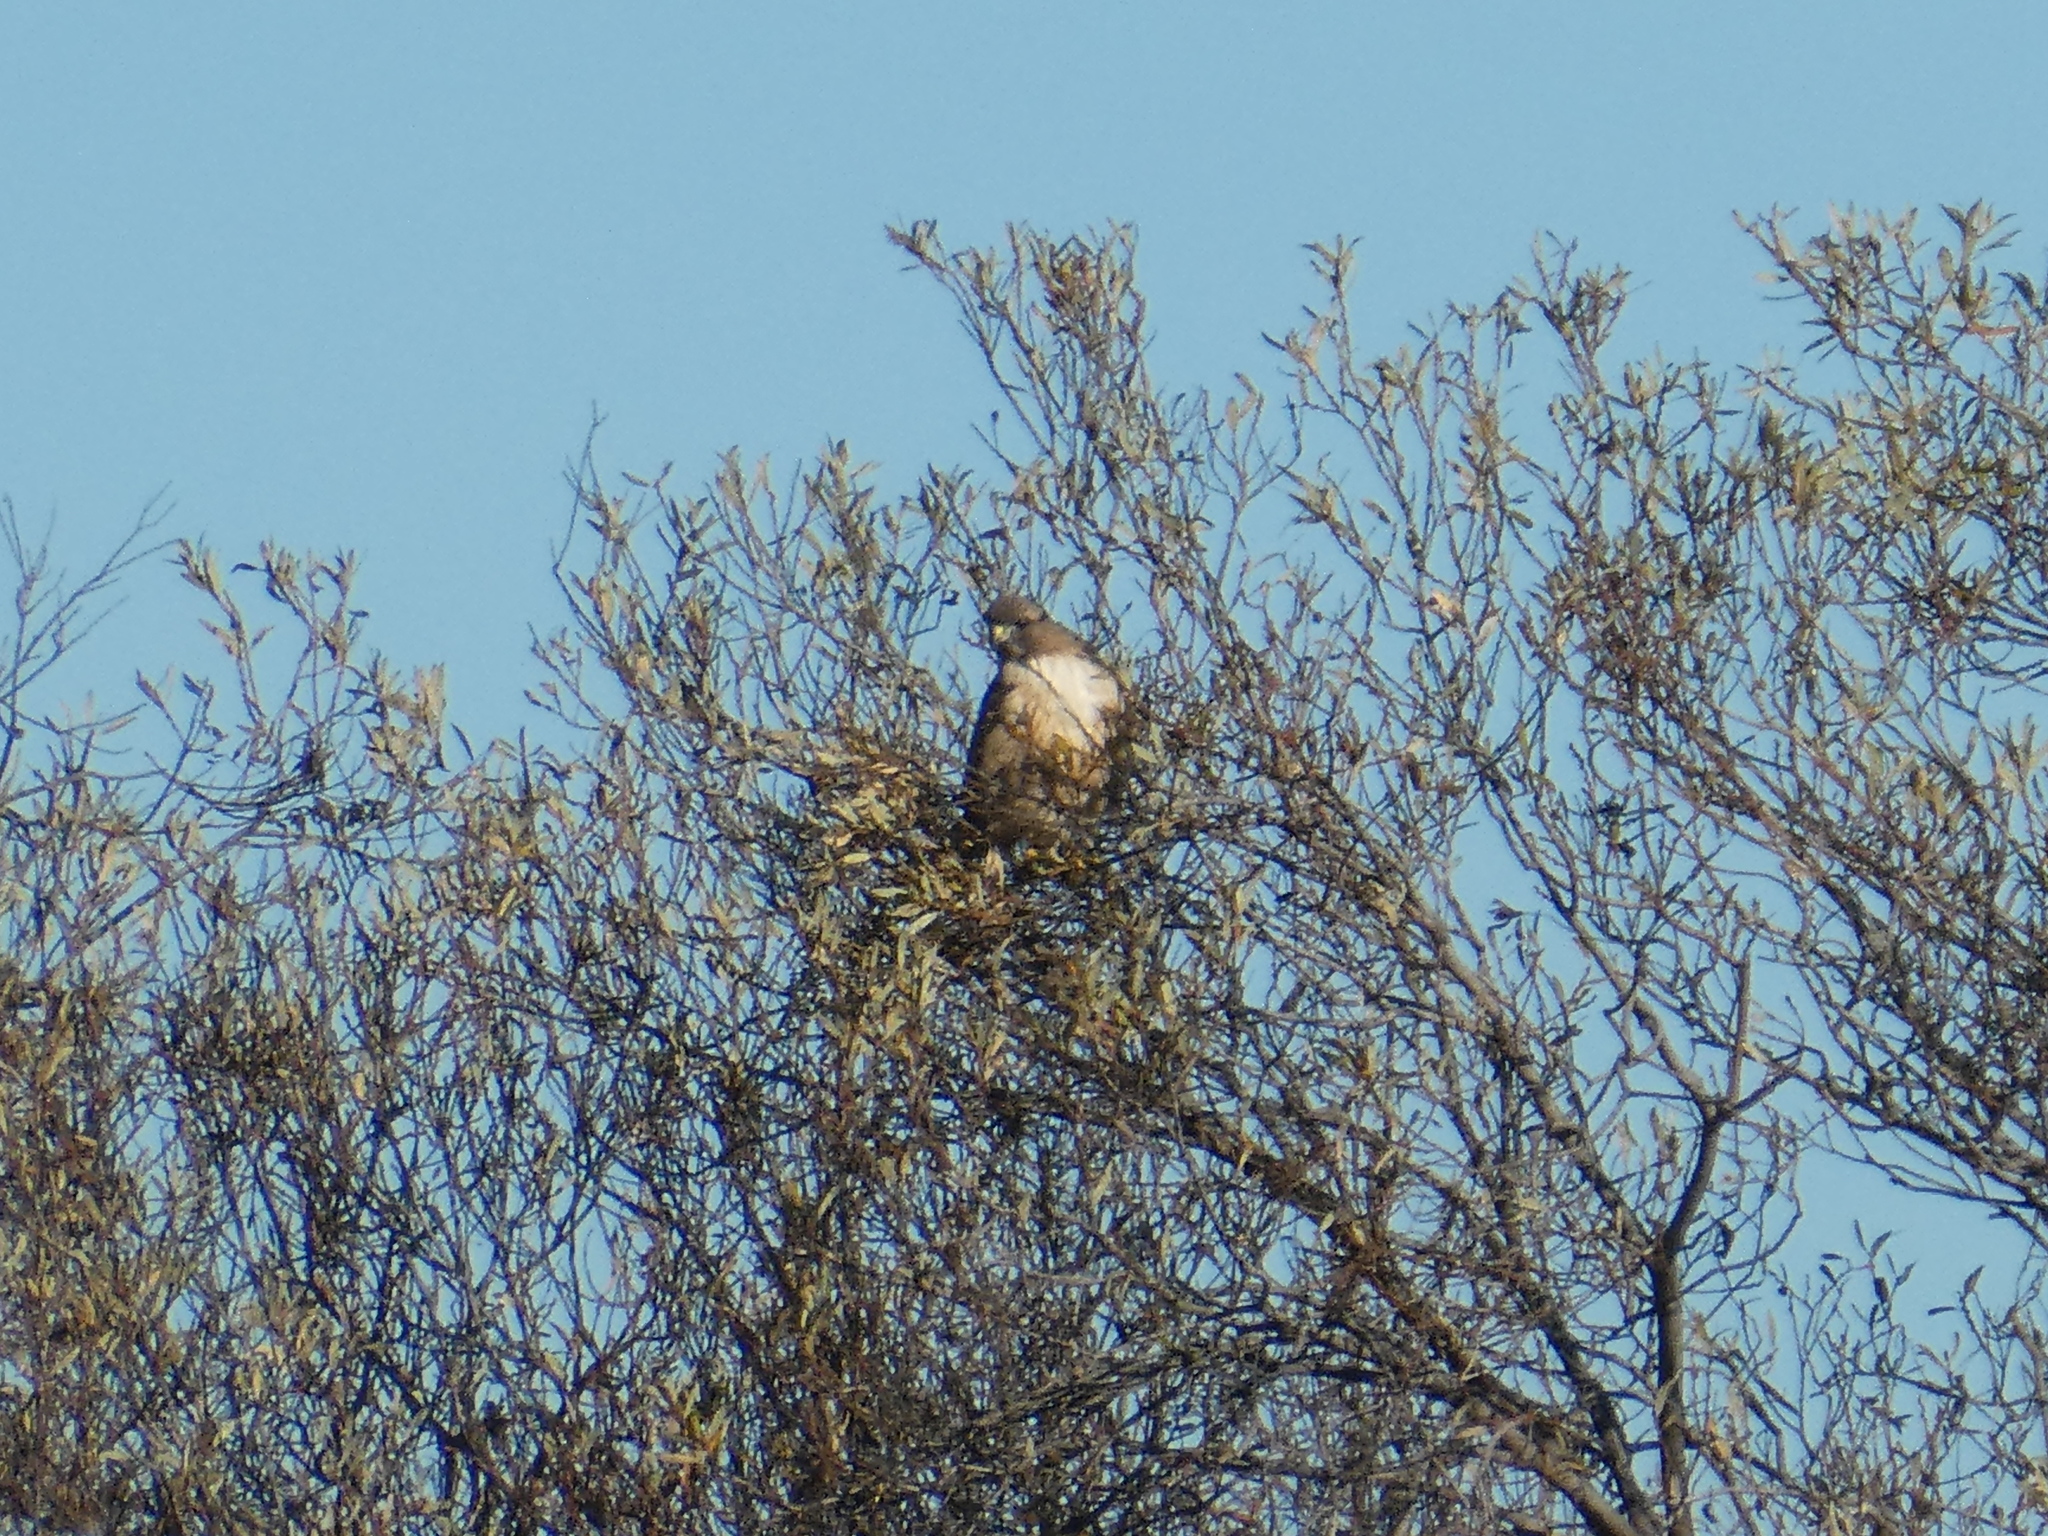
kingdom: Animalia
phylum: Chordata
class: Aves
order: Accipitriformes
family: Accipitridae
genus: Buteo
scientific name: Buteo jamaicensis
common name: Red-tailed hawk
